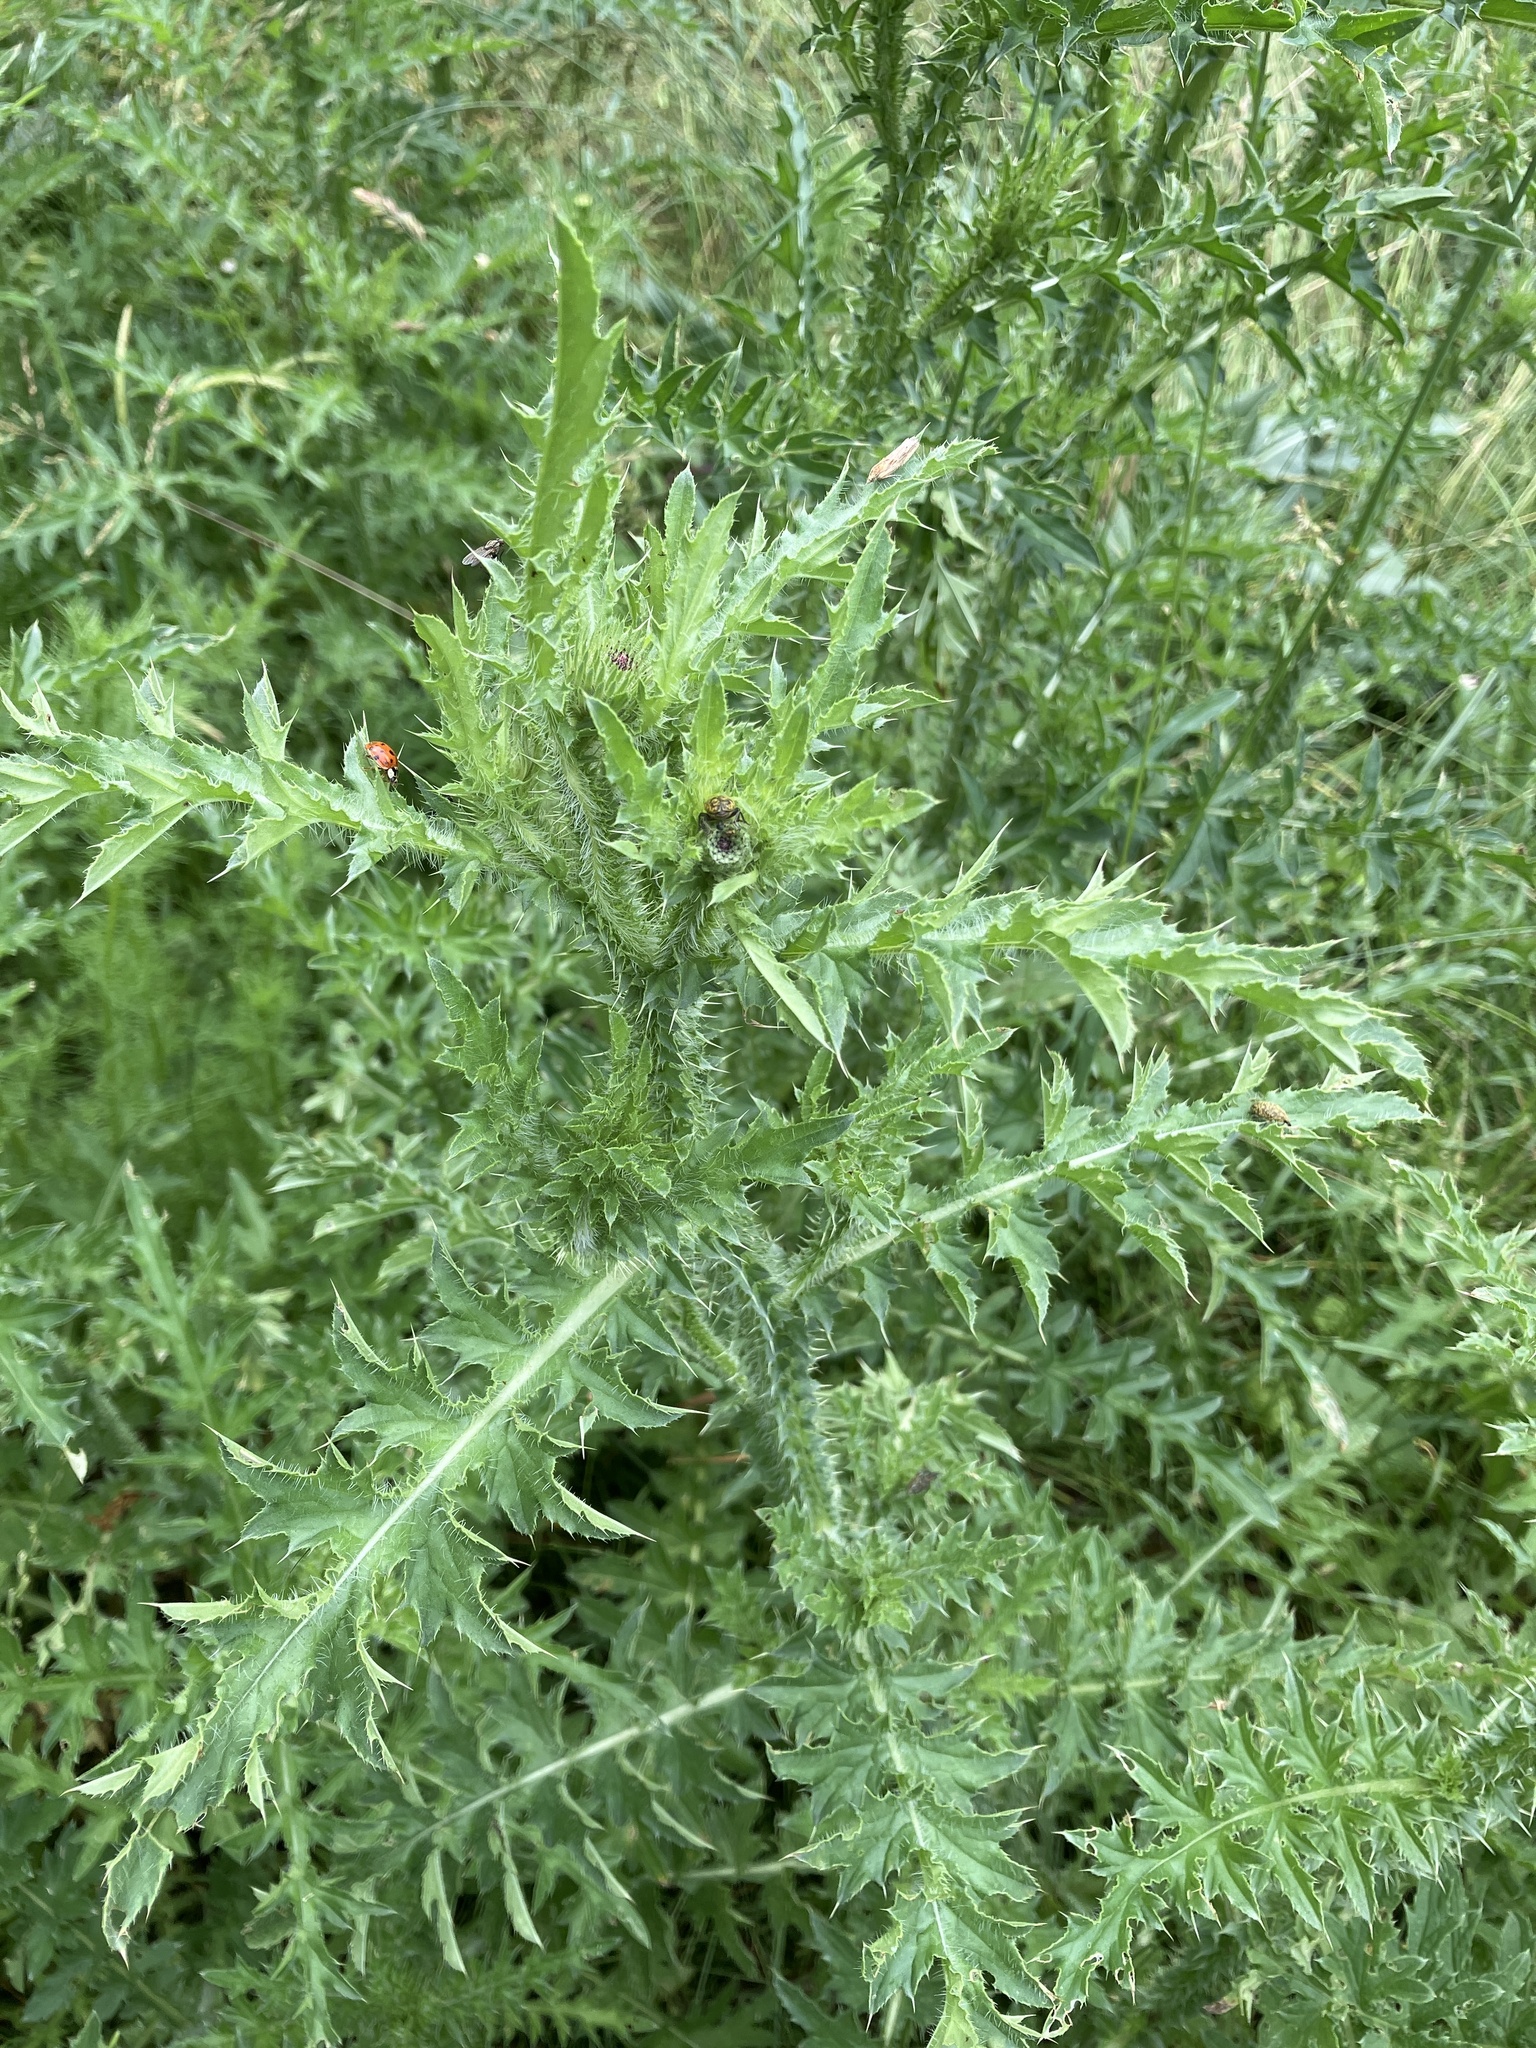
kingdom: Plantae
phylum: Tracheophyta
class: Magnoliopsida
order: Asterales
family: Asteraceae
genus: Carduus
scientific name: Carduus acanthoides
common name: Plumeless thistle
